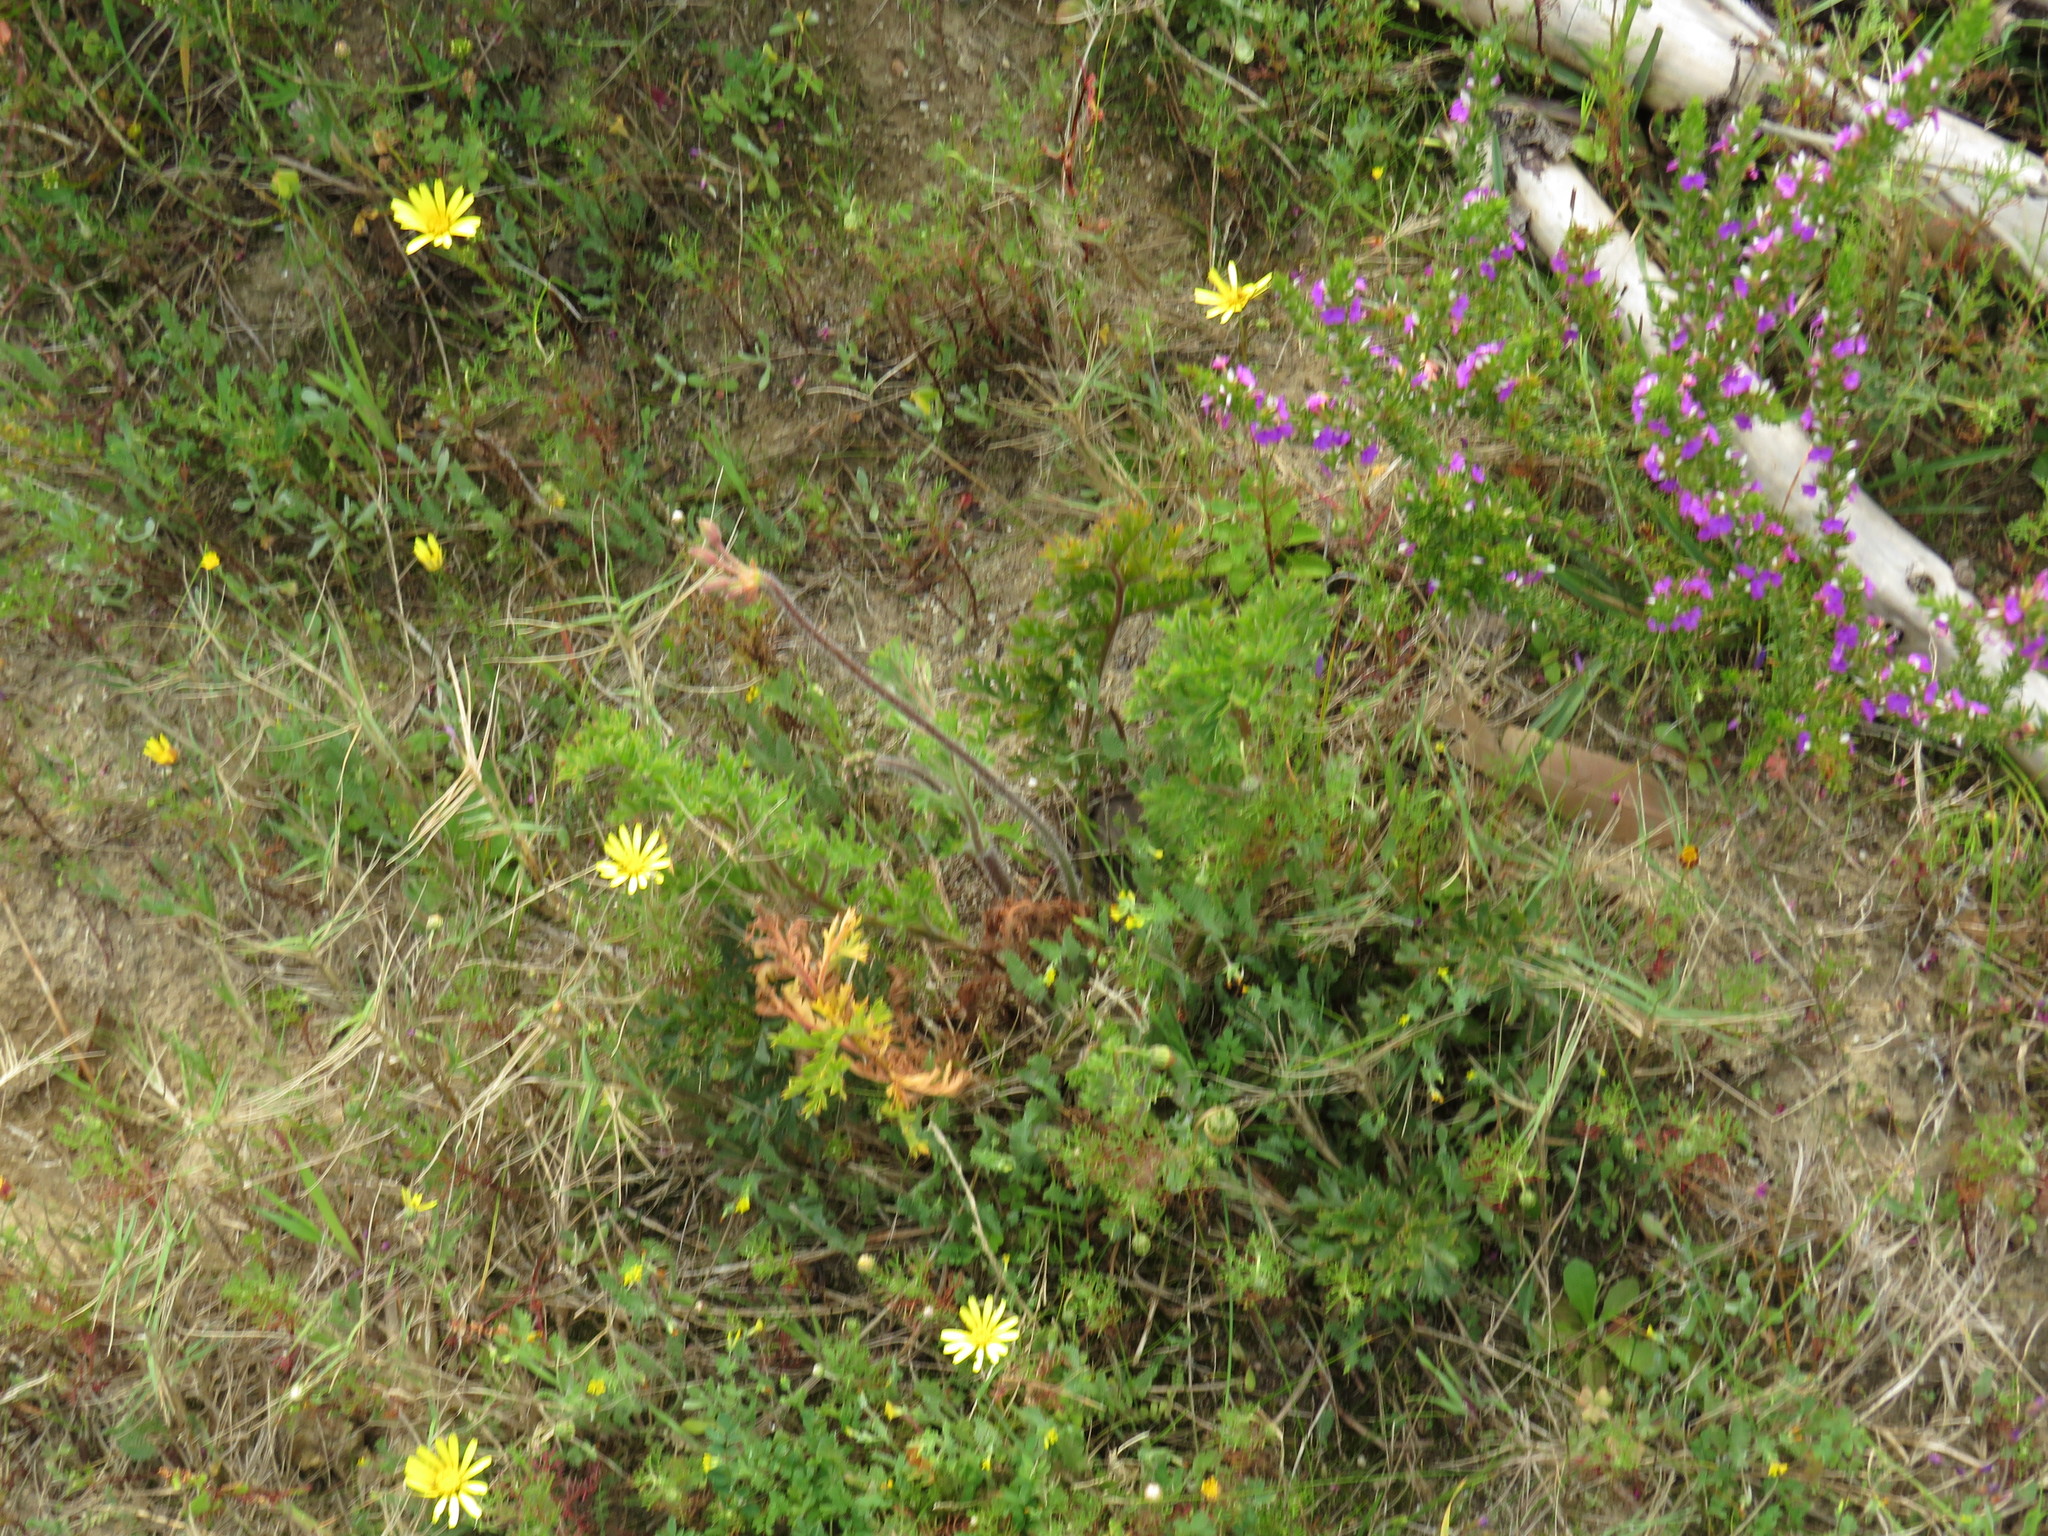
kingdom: Plantae
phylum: Tracheophyta
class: Magnoliopsida
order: Geraniales
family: Geraniaceae
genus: Pelargonium
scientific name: Pelargonium triste
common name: Night-scent pelargonium
